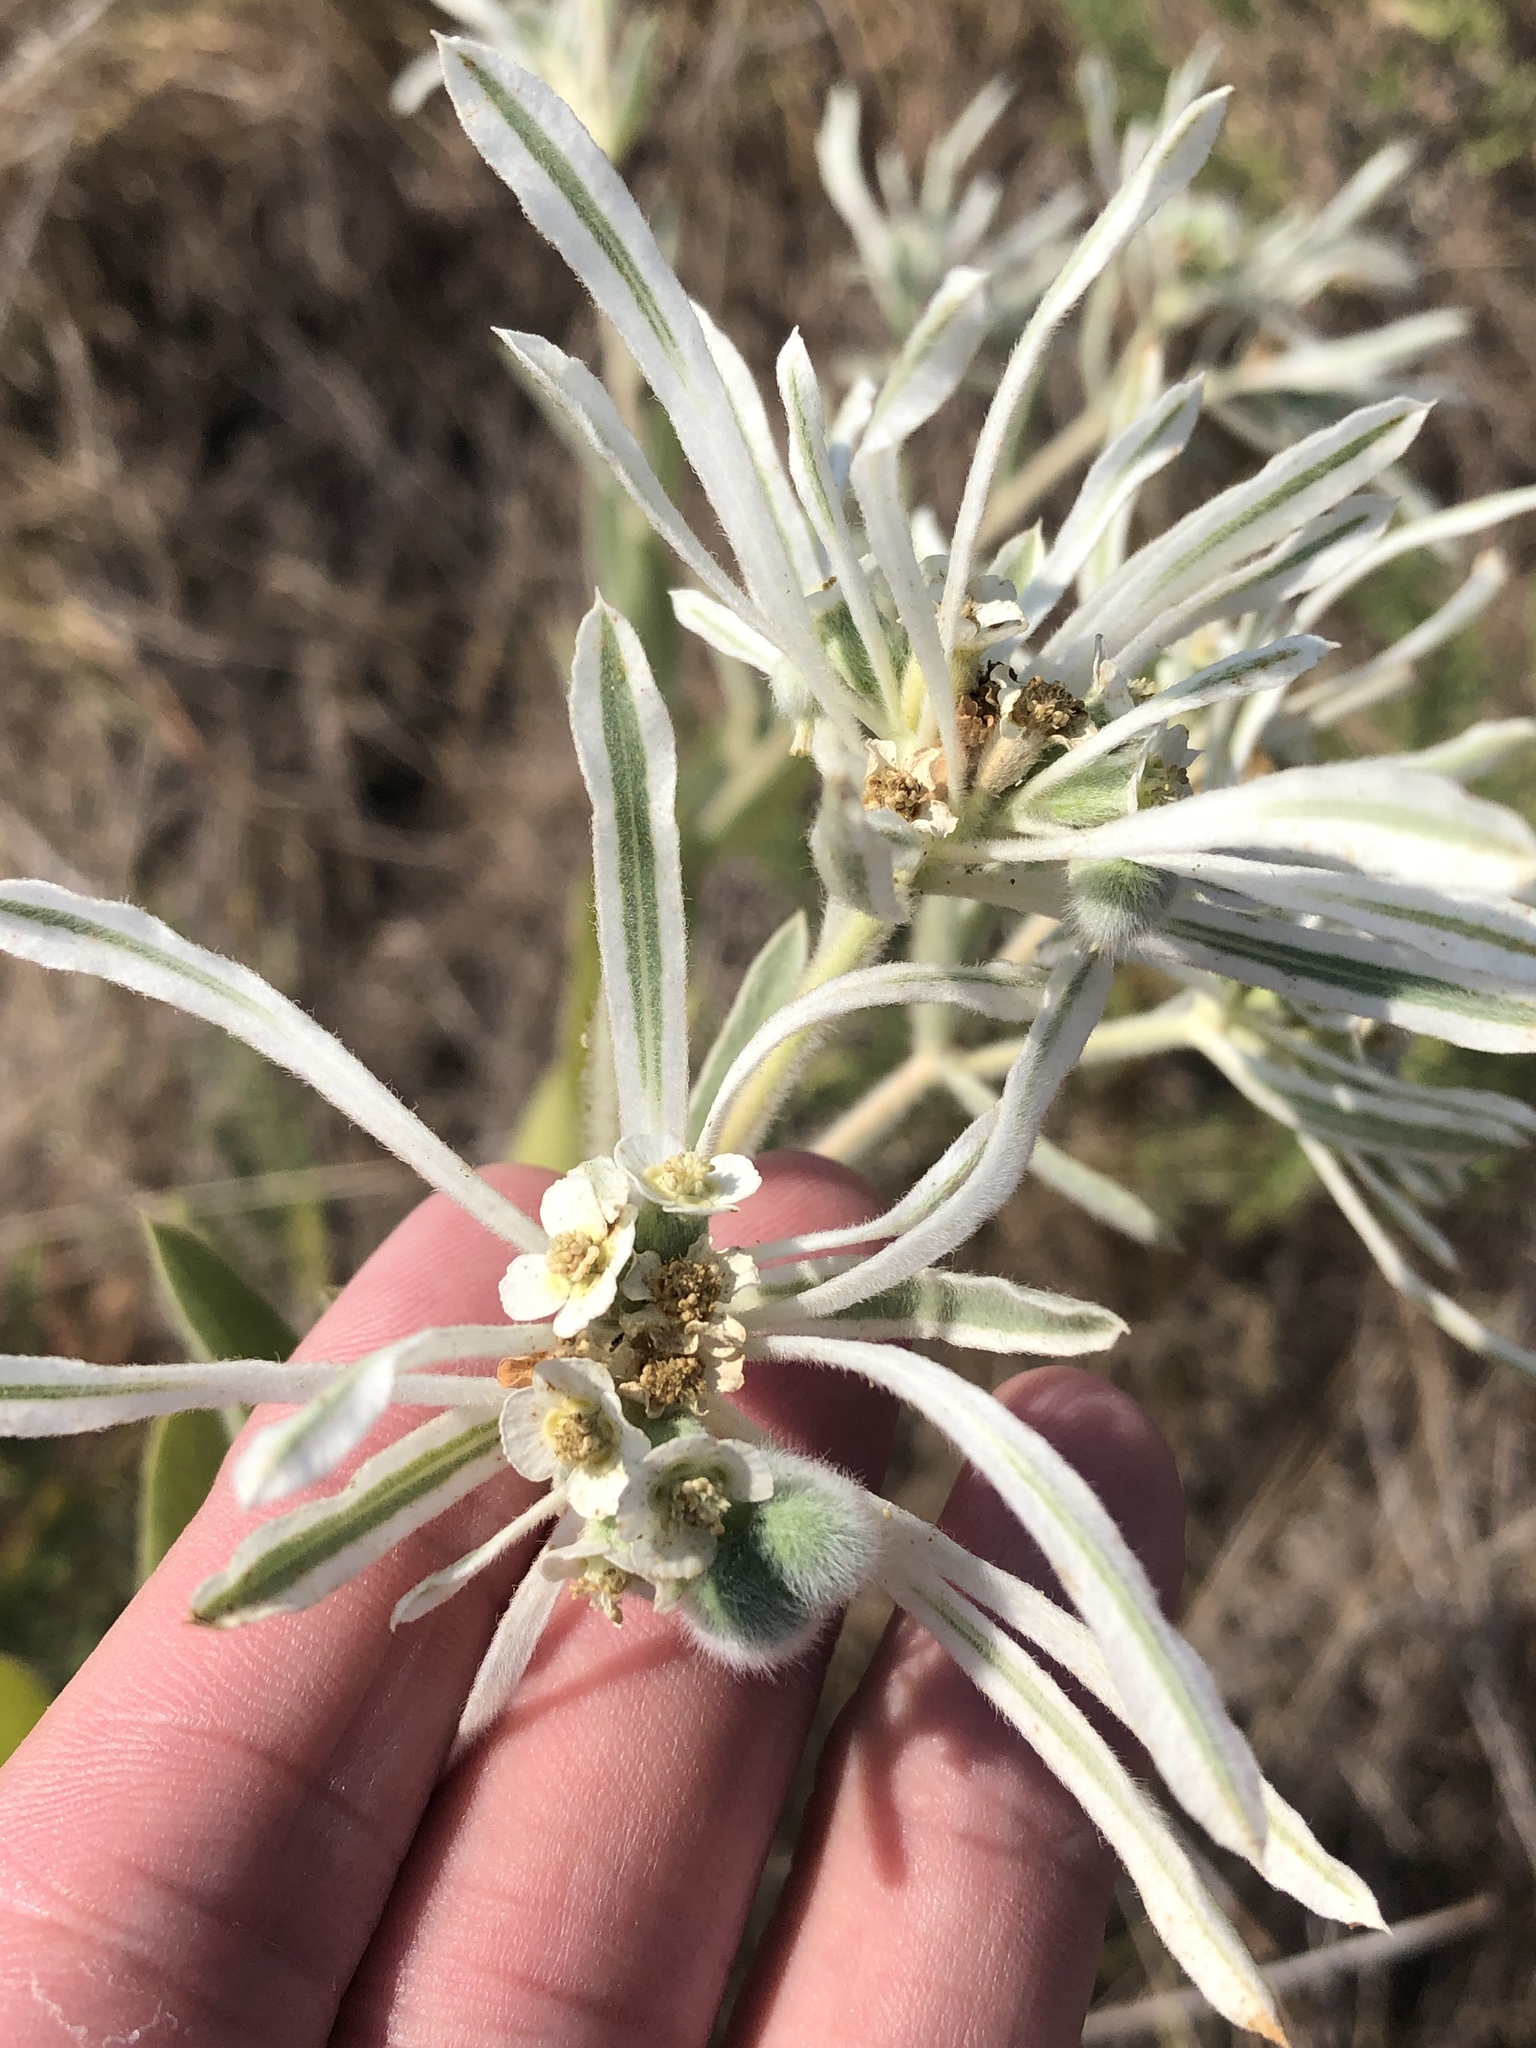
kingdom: Plantae
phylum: Tracheophyta
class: Magnoliopsida
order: Malpighiales
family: Euphorbiaceae
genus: Euphorbia
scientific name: Euphorbia bicolor
